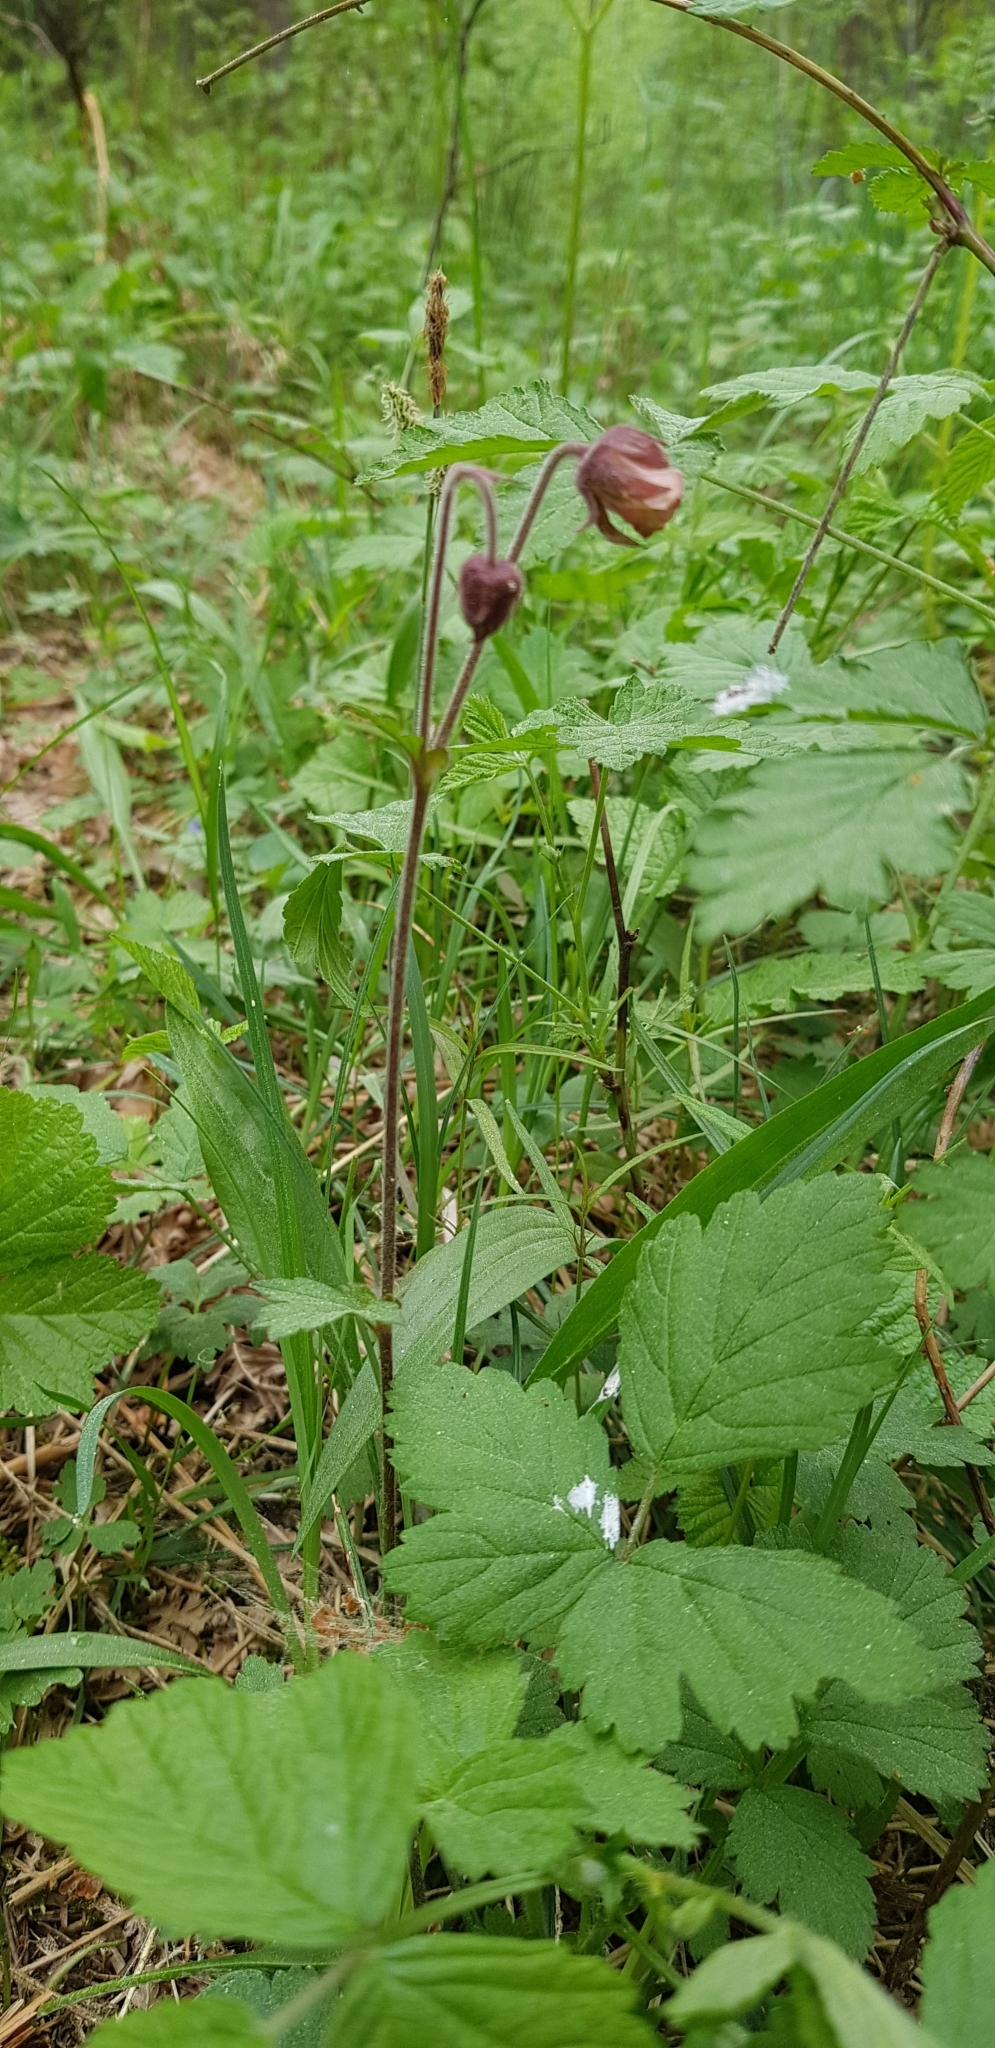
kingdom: Plantae
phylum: Tracheophyta
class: Magnoliopsida
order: Rosales
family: Rosaceae
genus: Geum
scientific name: Geum rivale
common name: Water avens
